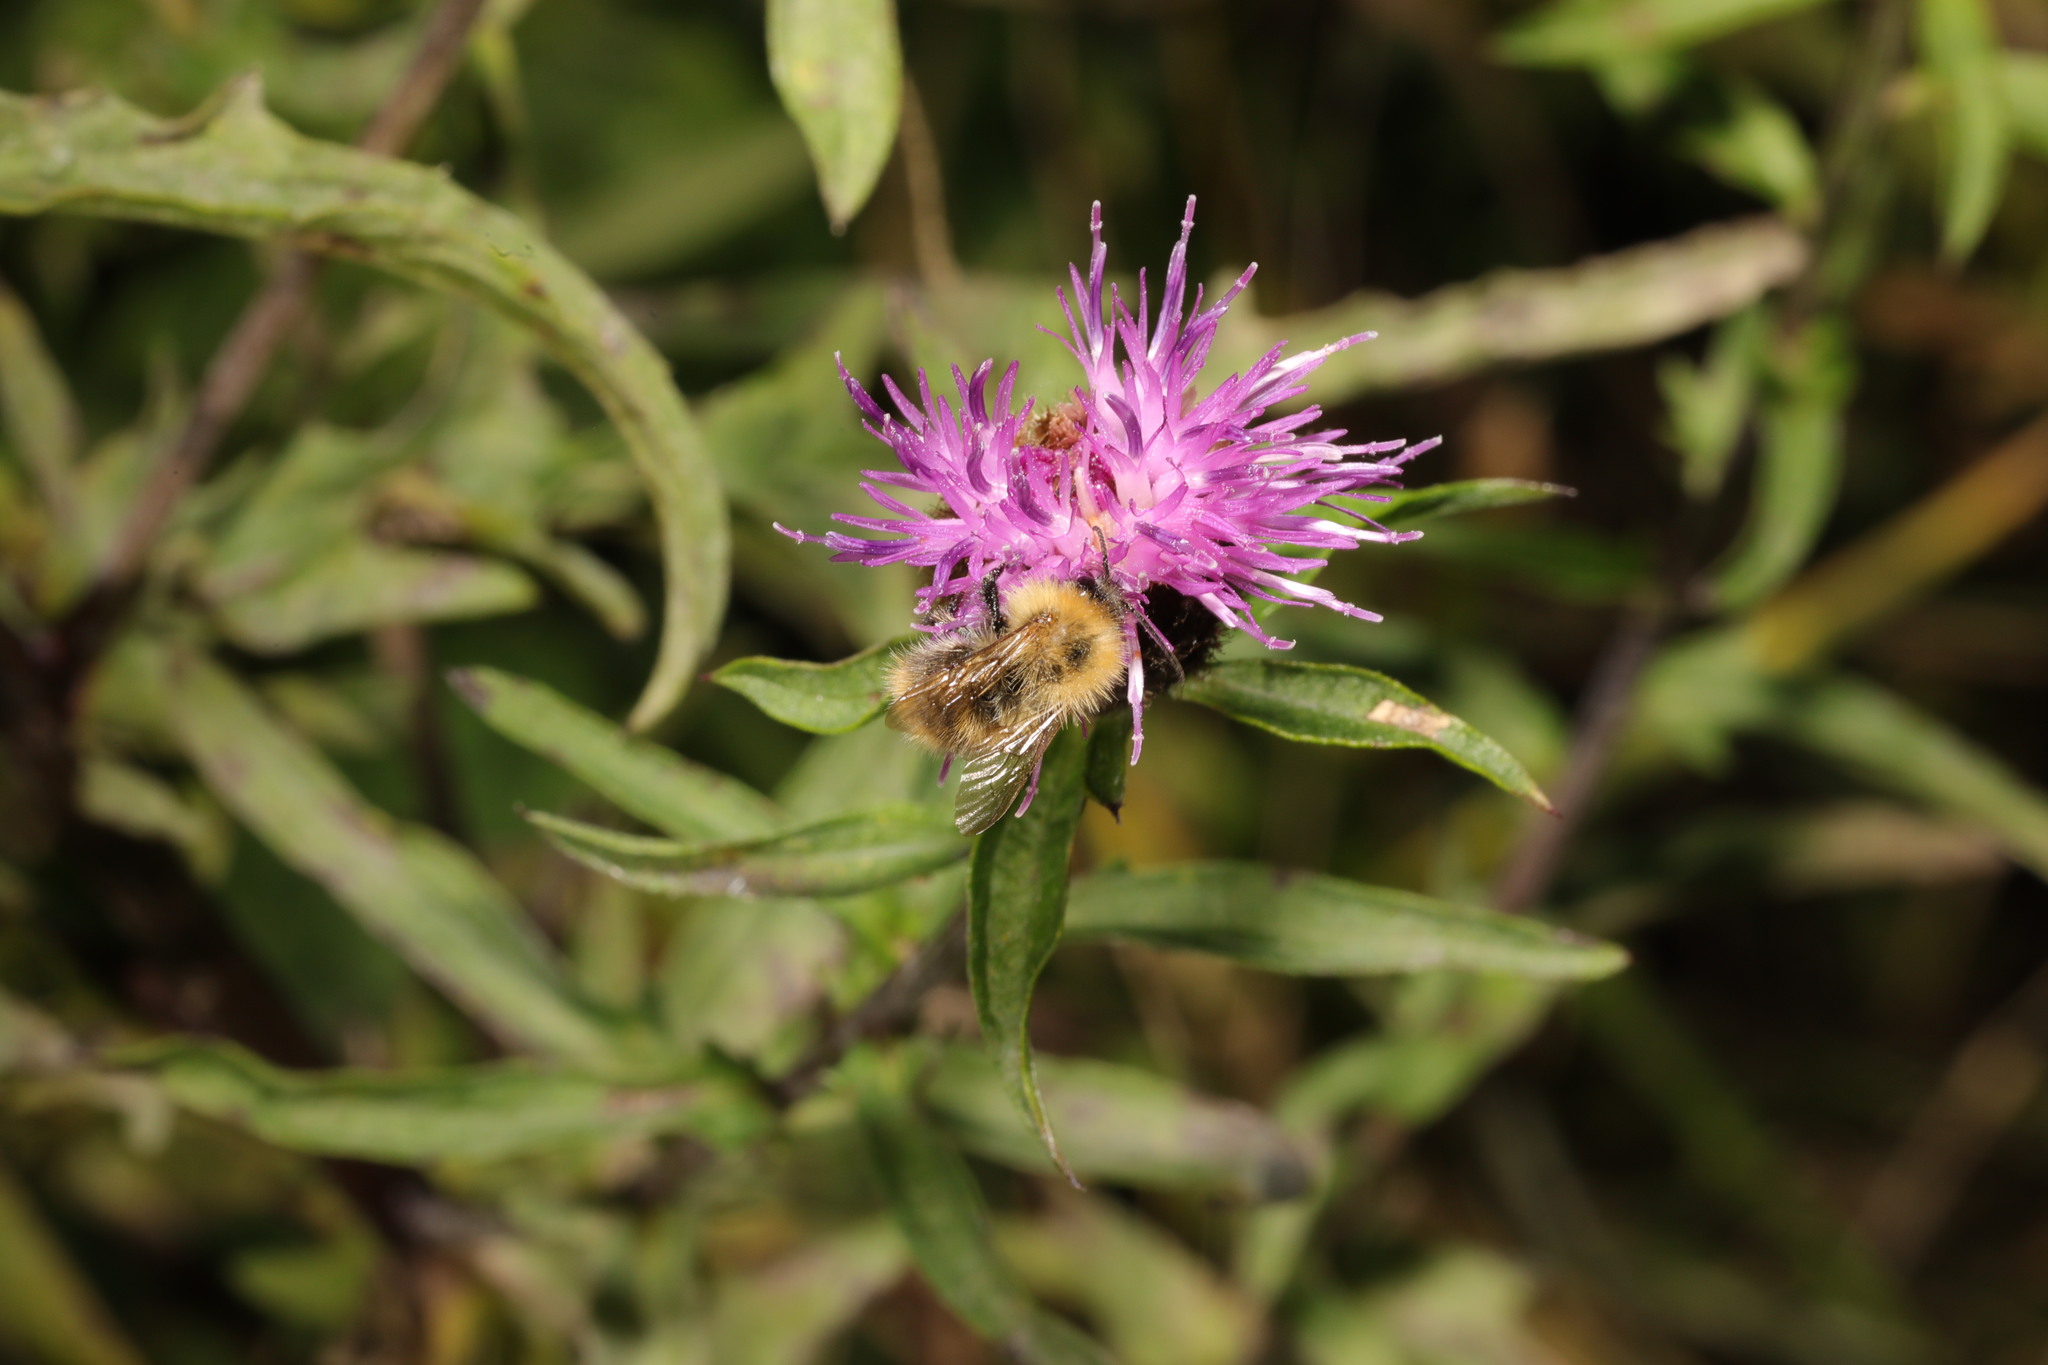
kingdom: Animalia
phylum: Arthropoda
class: Insecta
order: Hymenoptera
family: Apidae
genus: Bombus
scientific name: Bombus pascuorum
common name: Common carder bee
